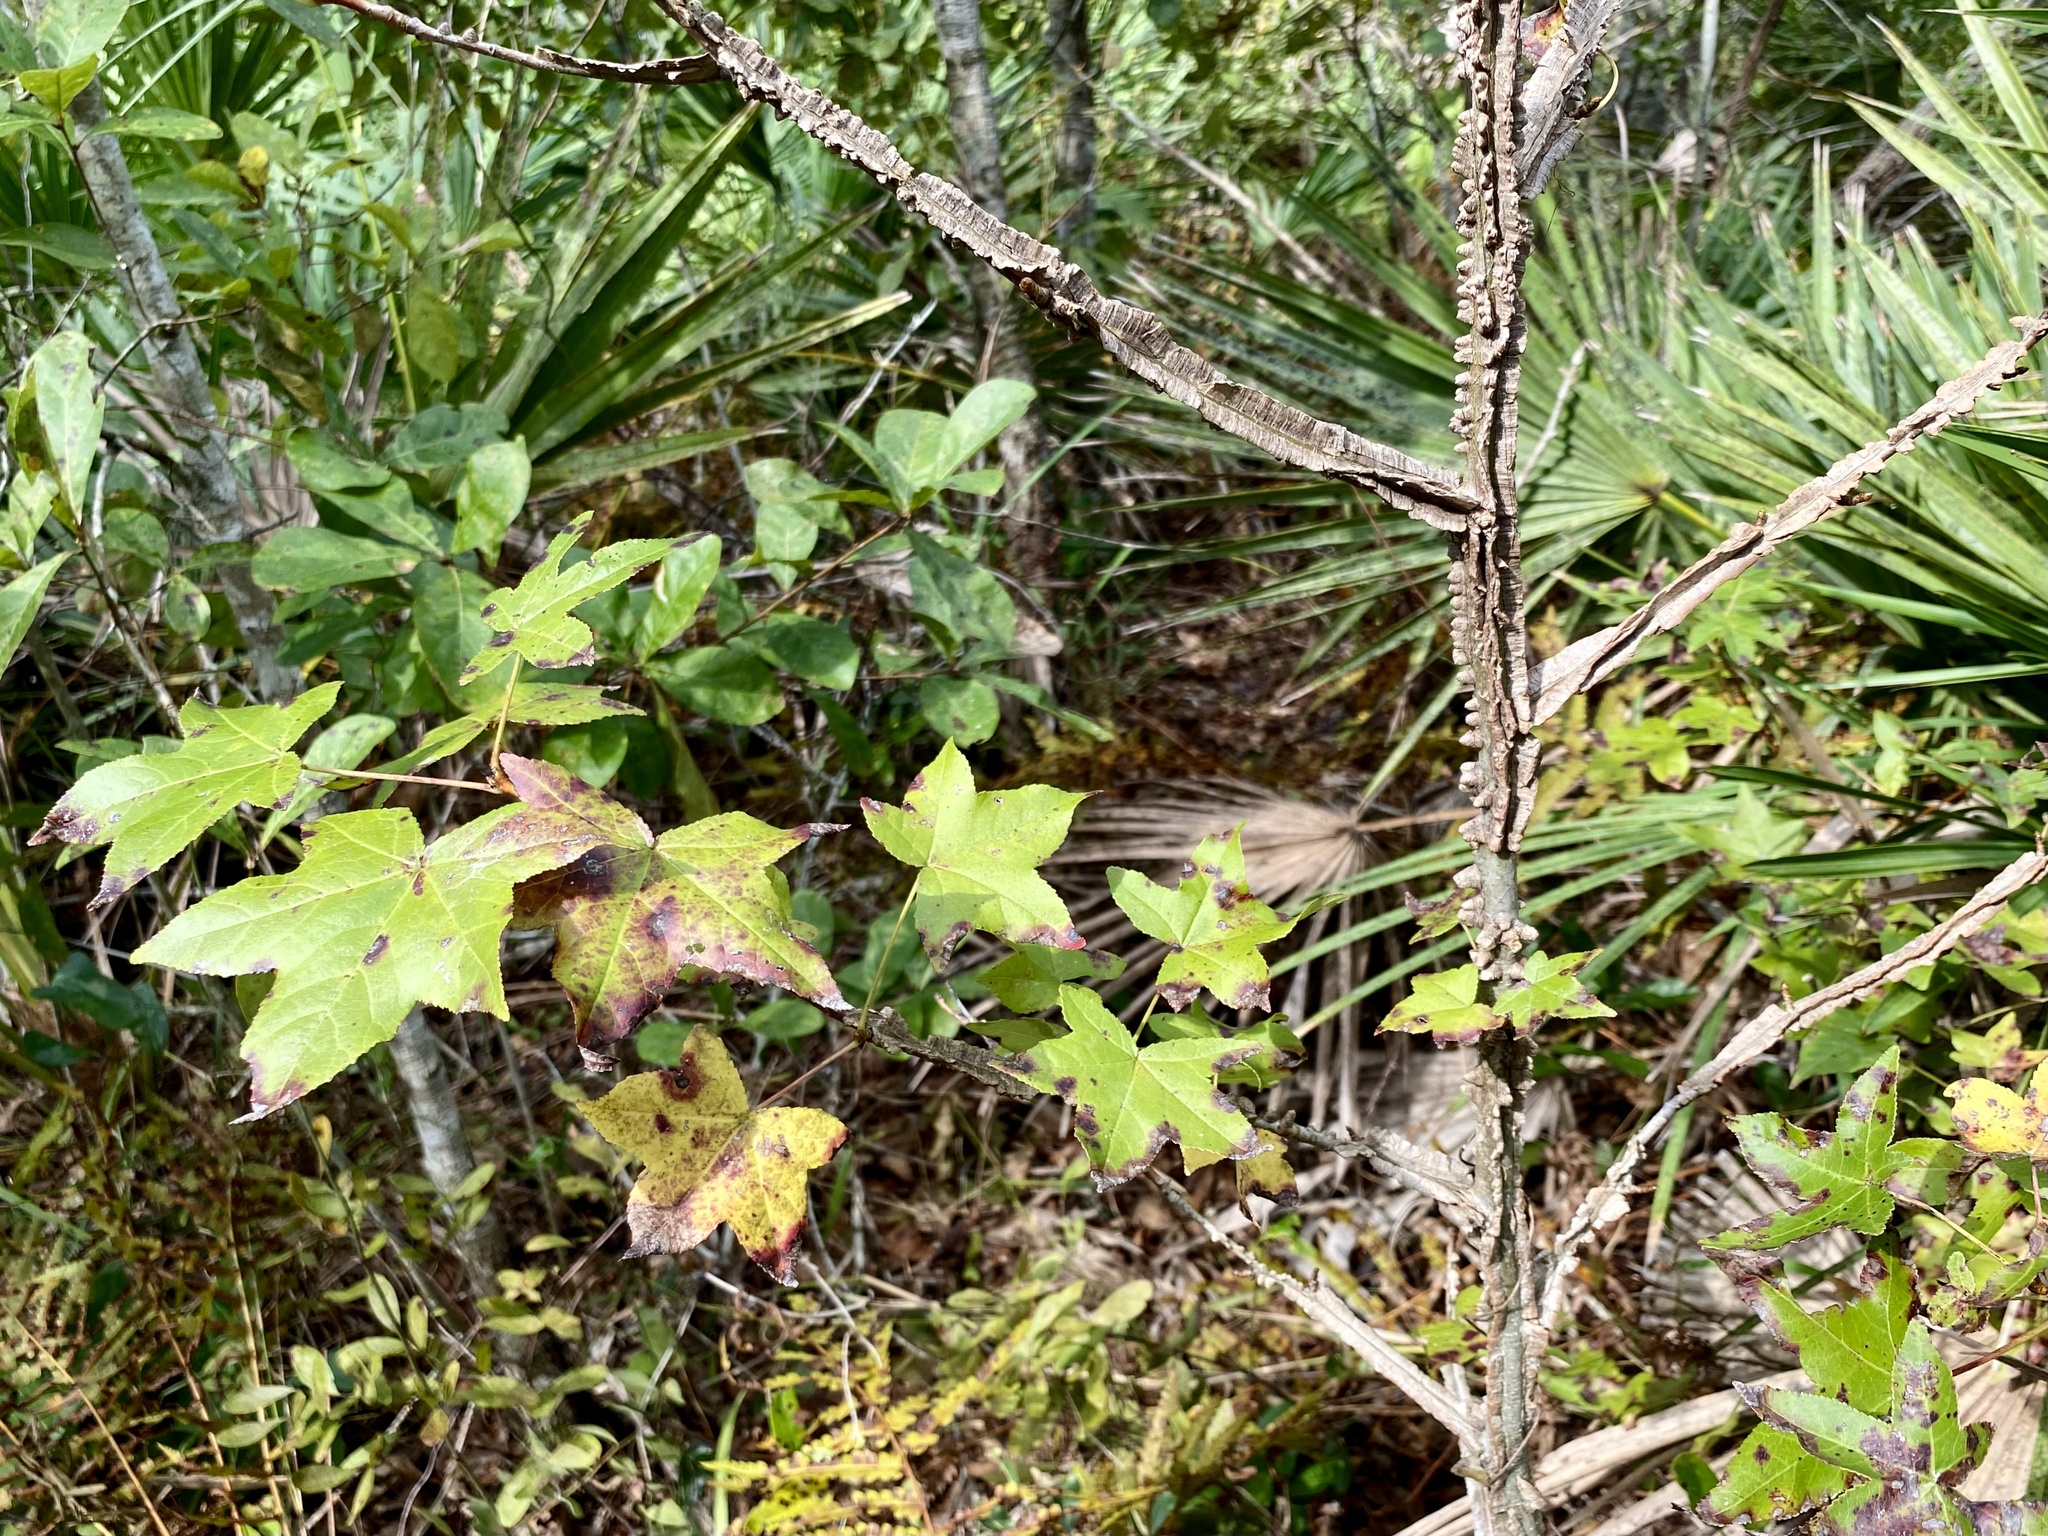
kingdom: Plantae
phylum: Tracheophyta
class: Magnoliopsida
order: Saxifragales
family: Altingiaceae
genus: Liquidambar
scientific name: Liquidambar styraciflua
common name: Sweet gum
